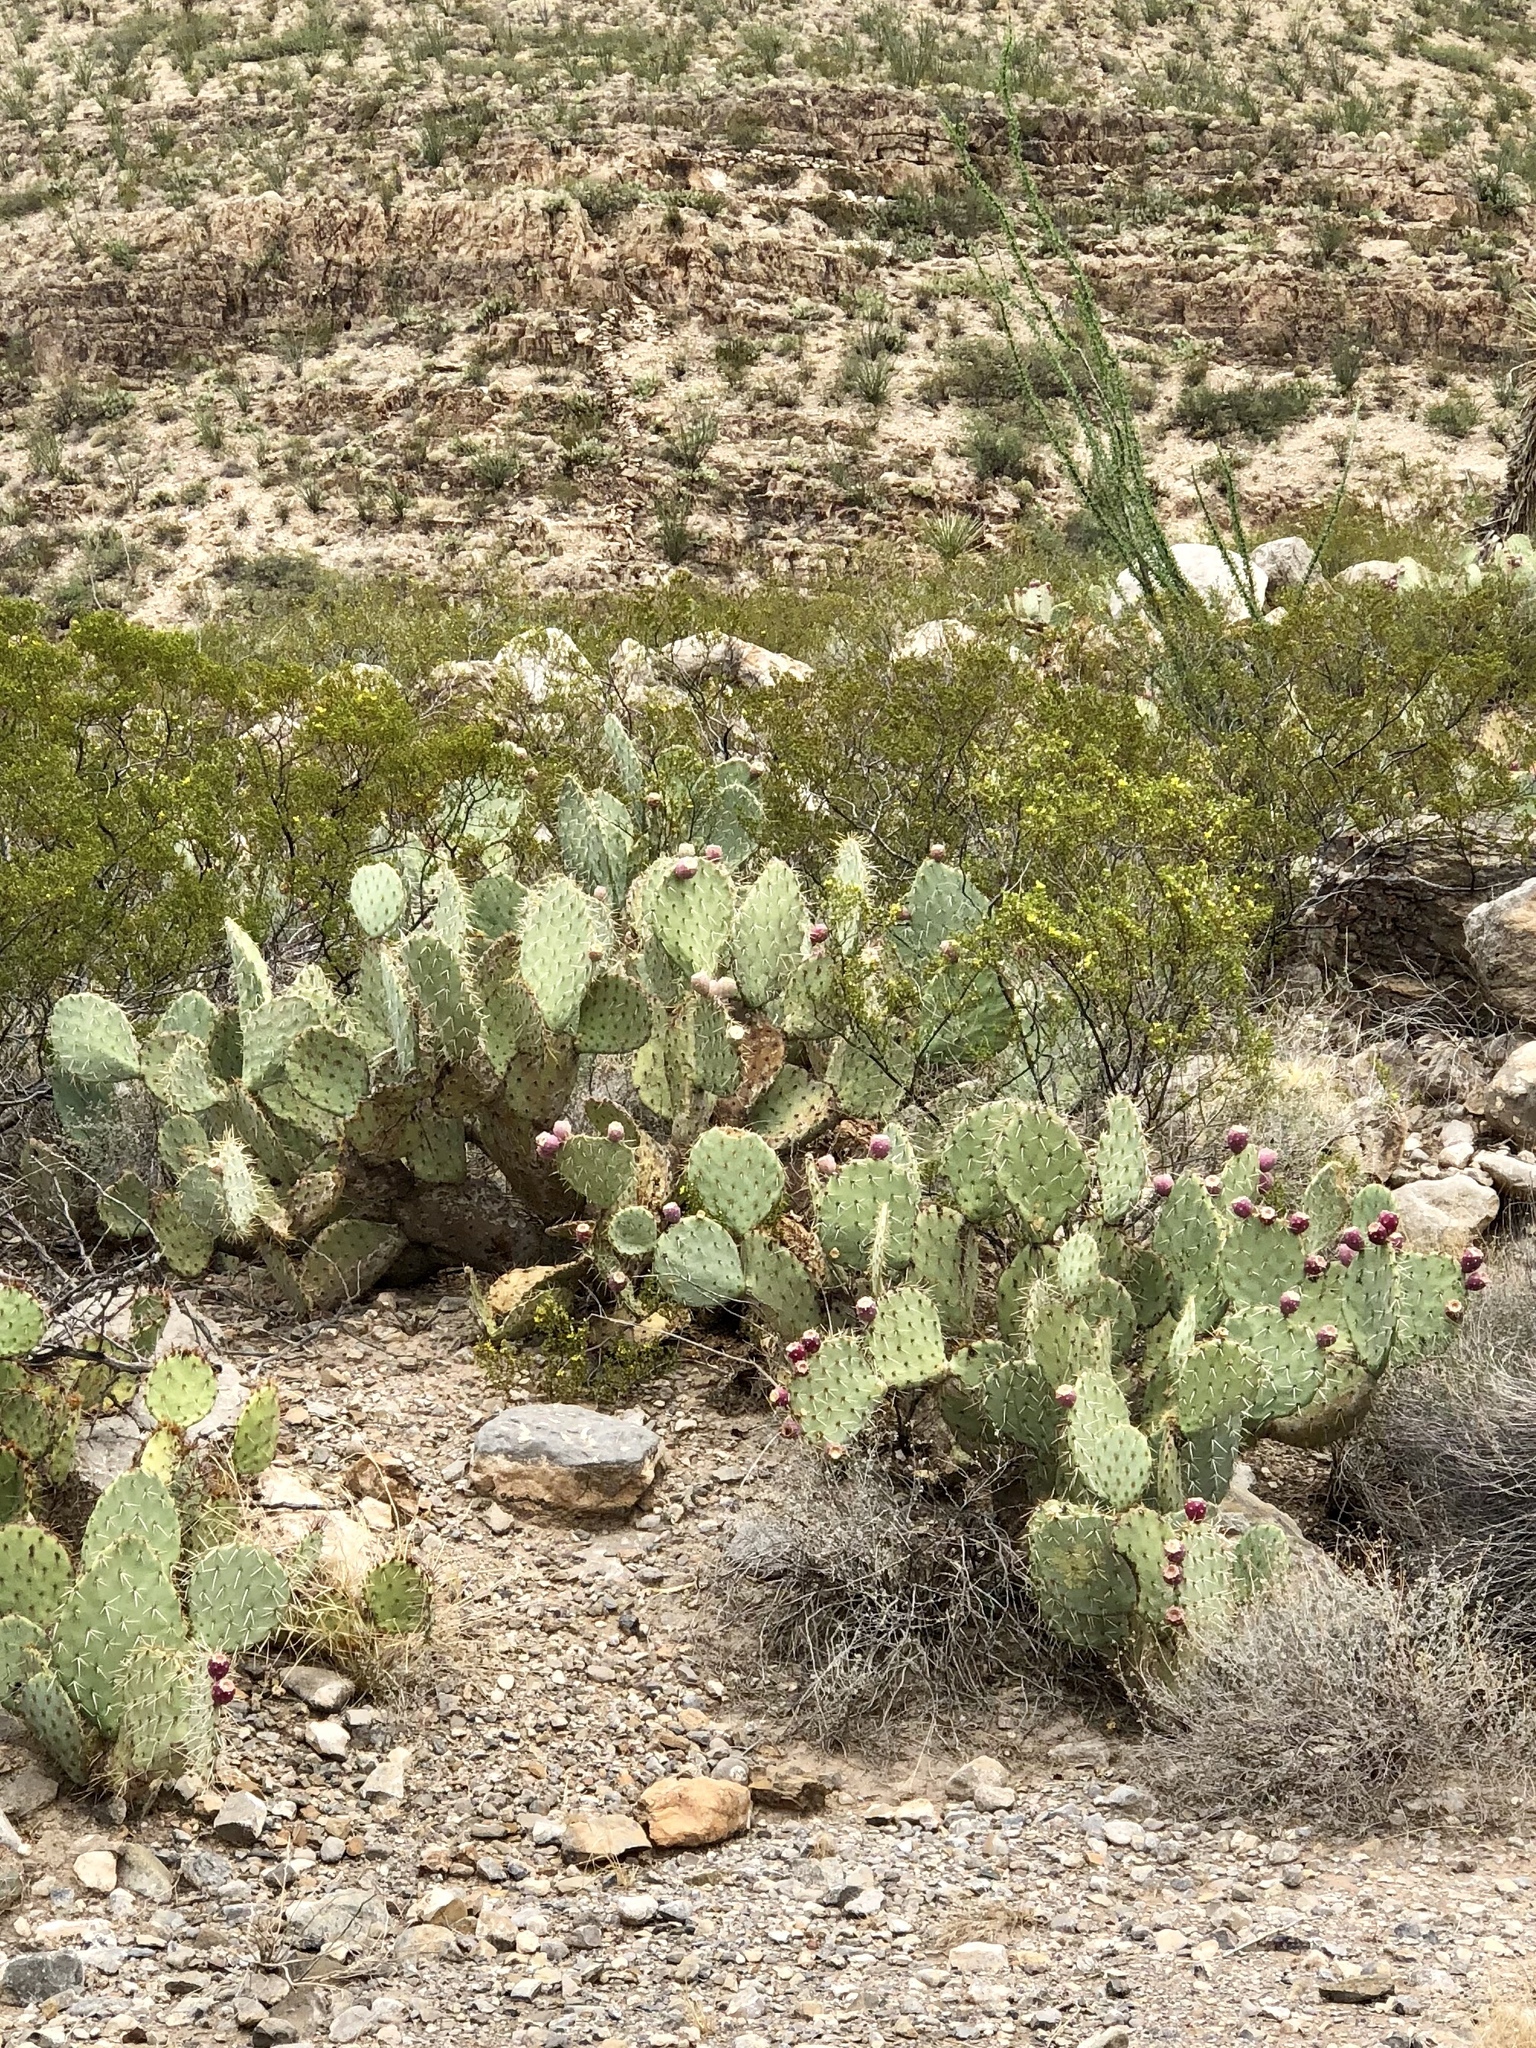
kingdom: Plantae
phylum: Tracheophyta
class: Magnoliopsida
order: Caryophyllales
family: Cactaceae
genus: Opuntia
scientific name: Opuntia engelmannii
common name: Cactus-apple
